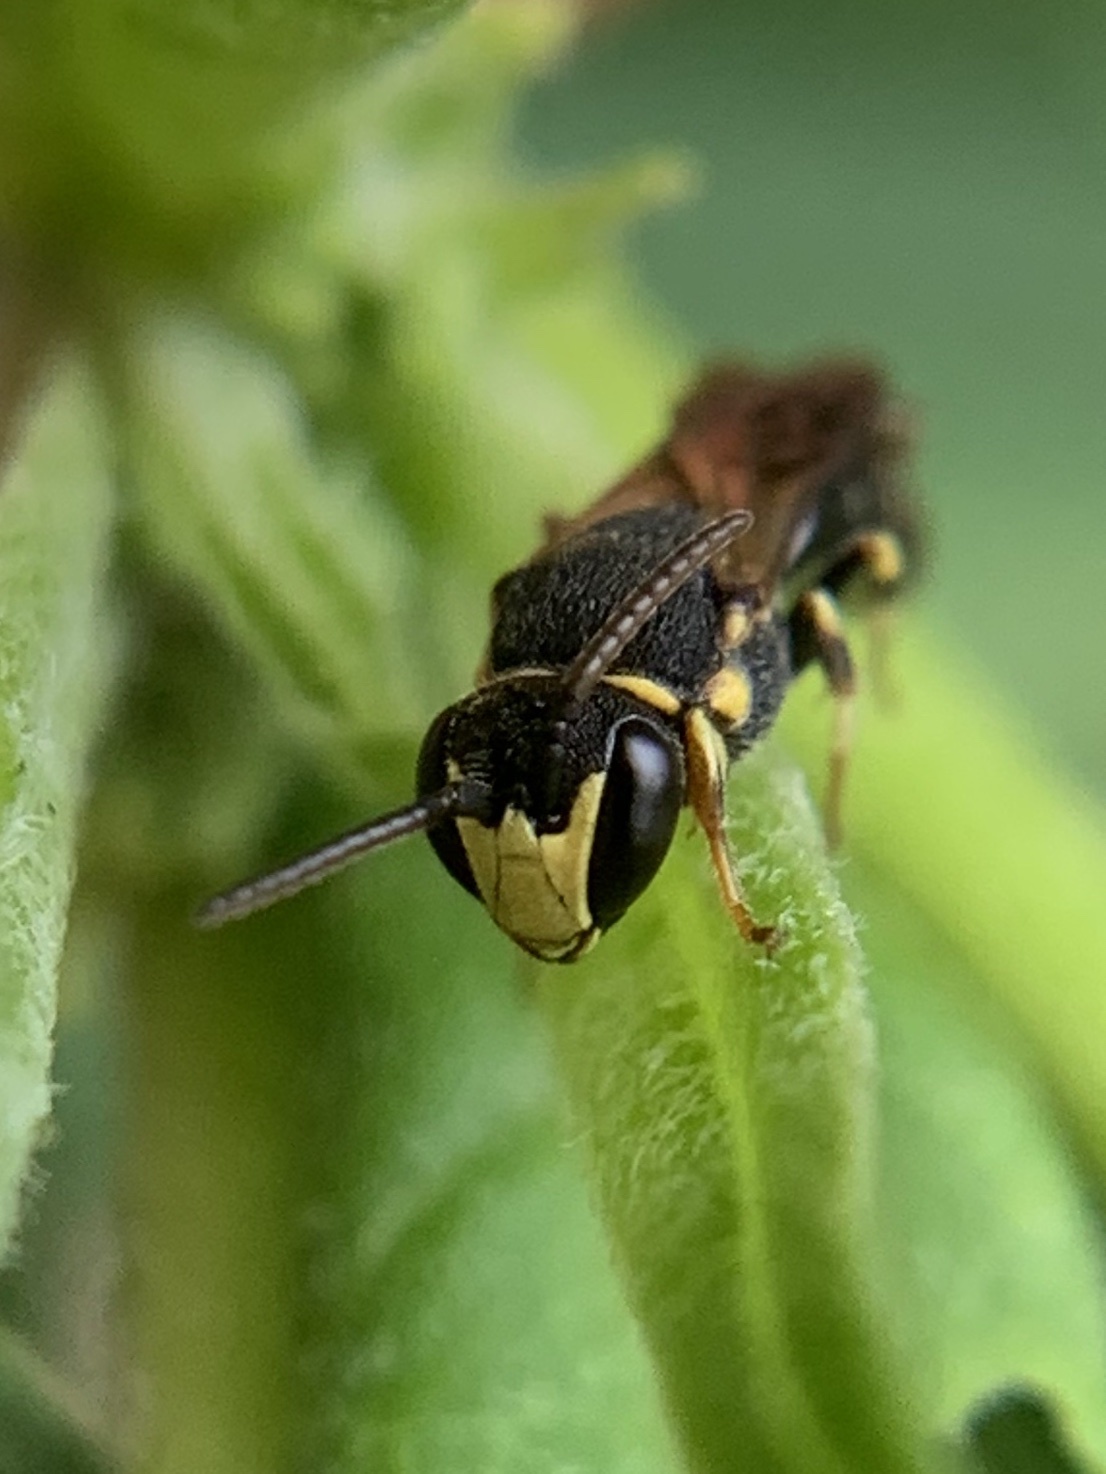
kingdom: Animalia
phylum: Arthropoda
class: Insecta
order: Hymenoptera
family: Colletidae
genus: Hylaeus
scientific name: Hylaeus confluens
